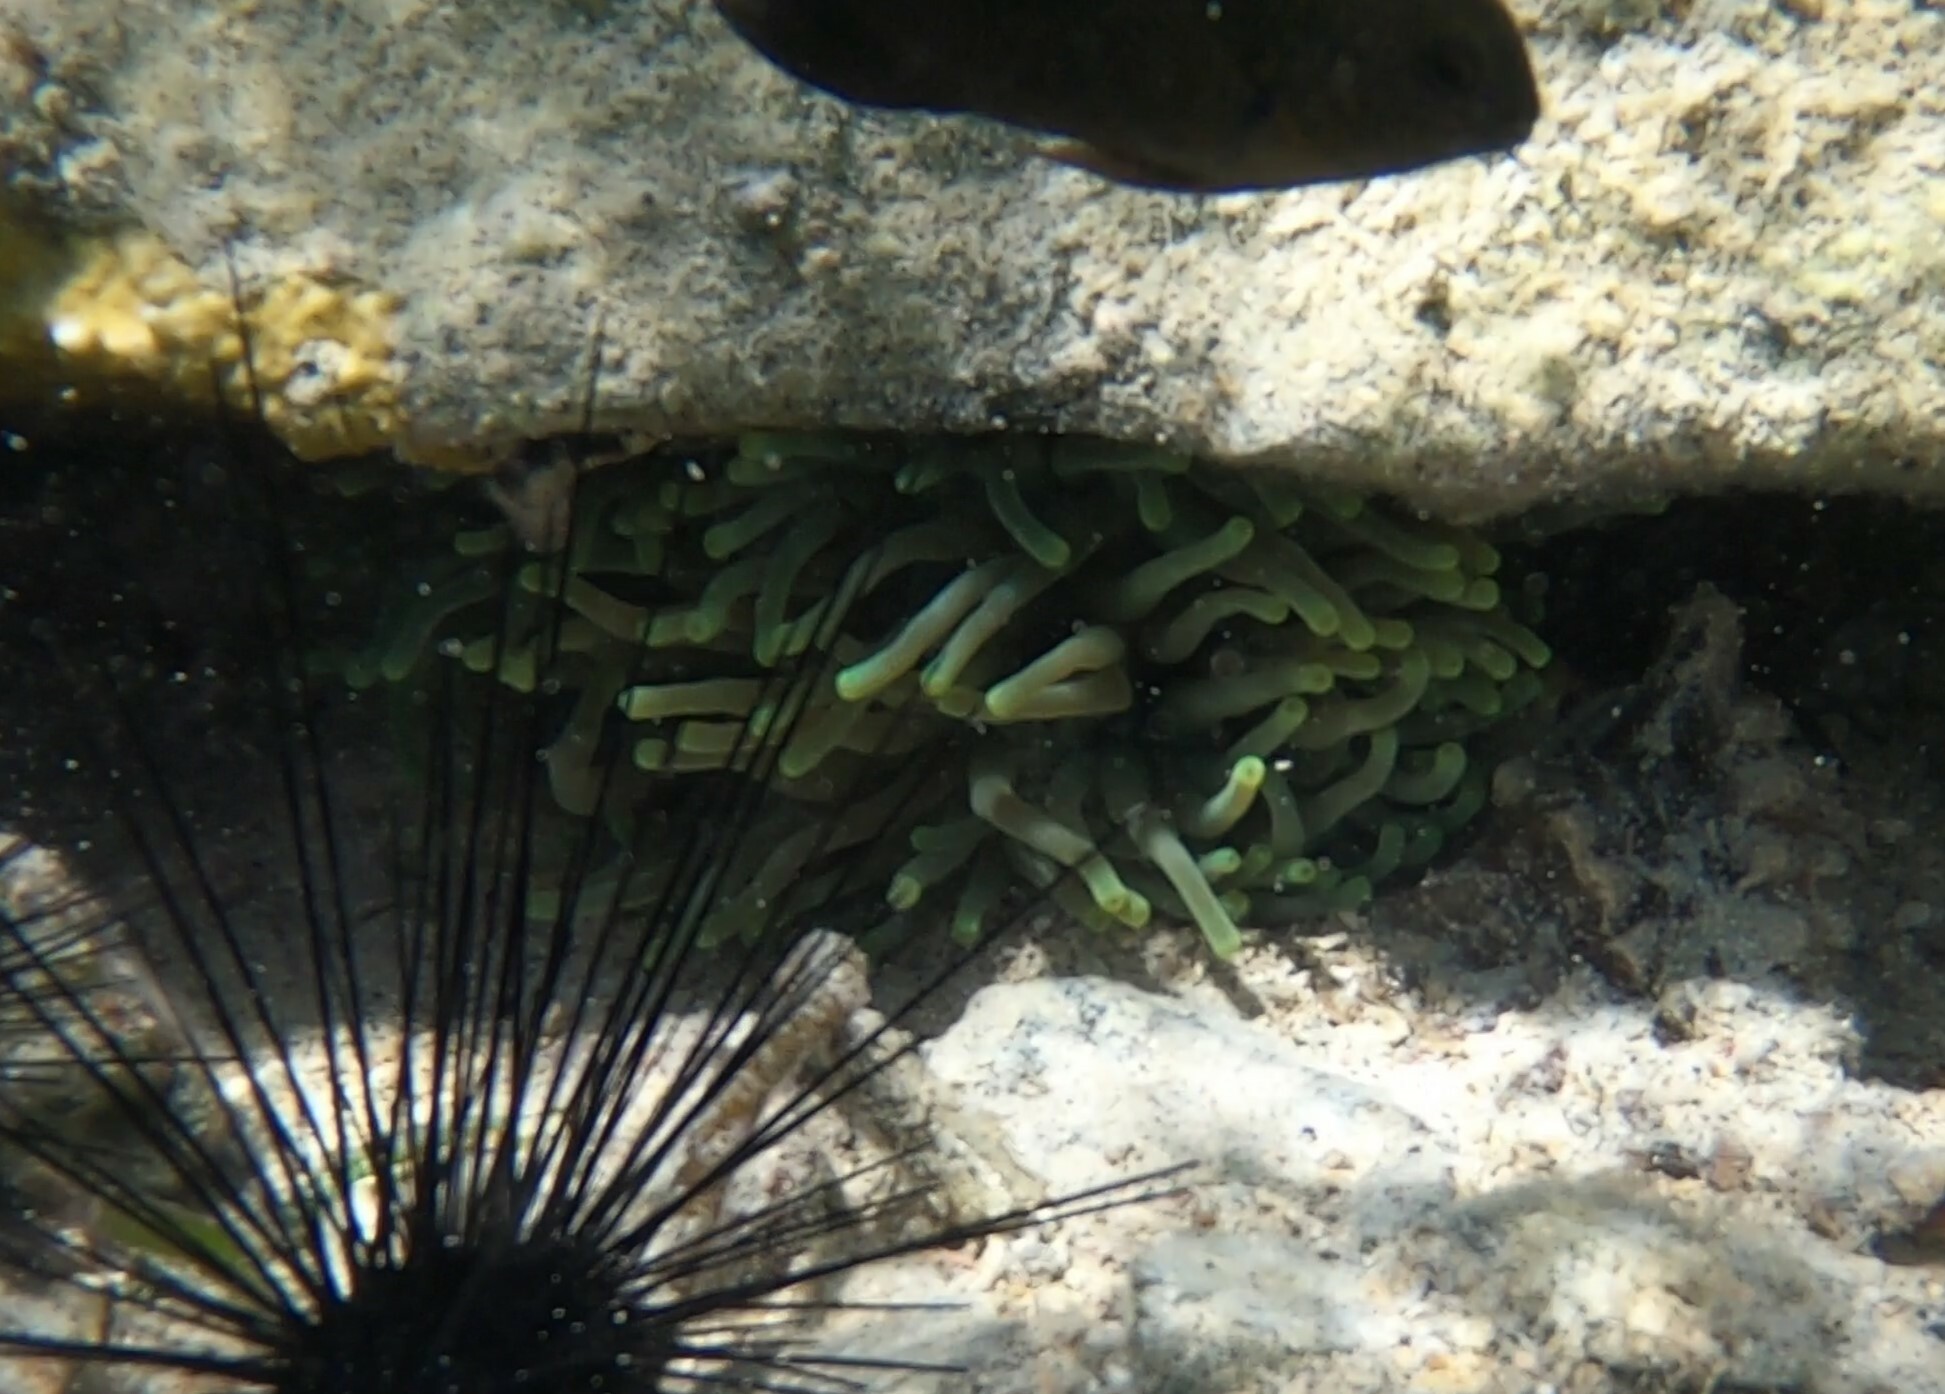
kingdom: Animalia
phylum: Cnidaria
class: Anthozoa
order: Actiniaria
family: Actiniidae
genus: Condylactis
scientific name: Condylactis gigantea
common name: Giant caribbean anemone
